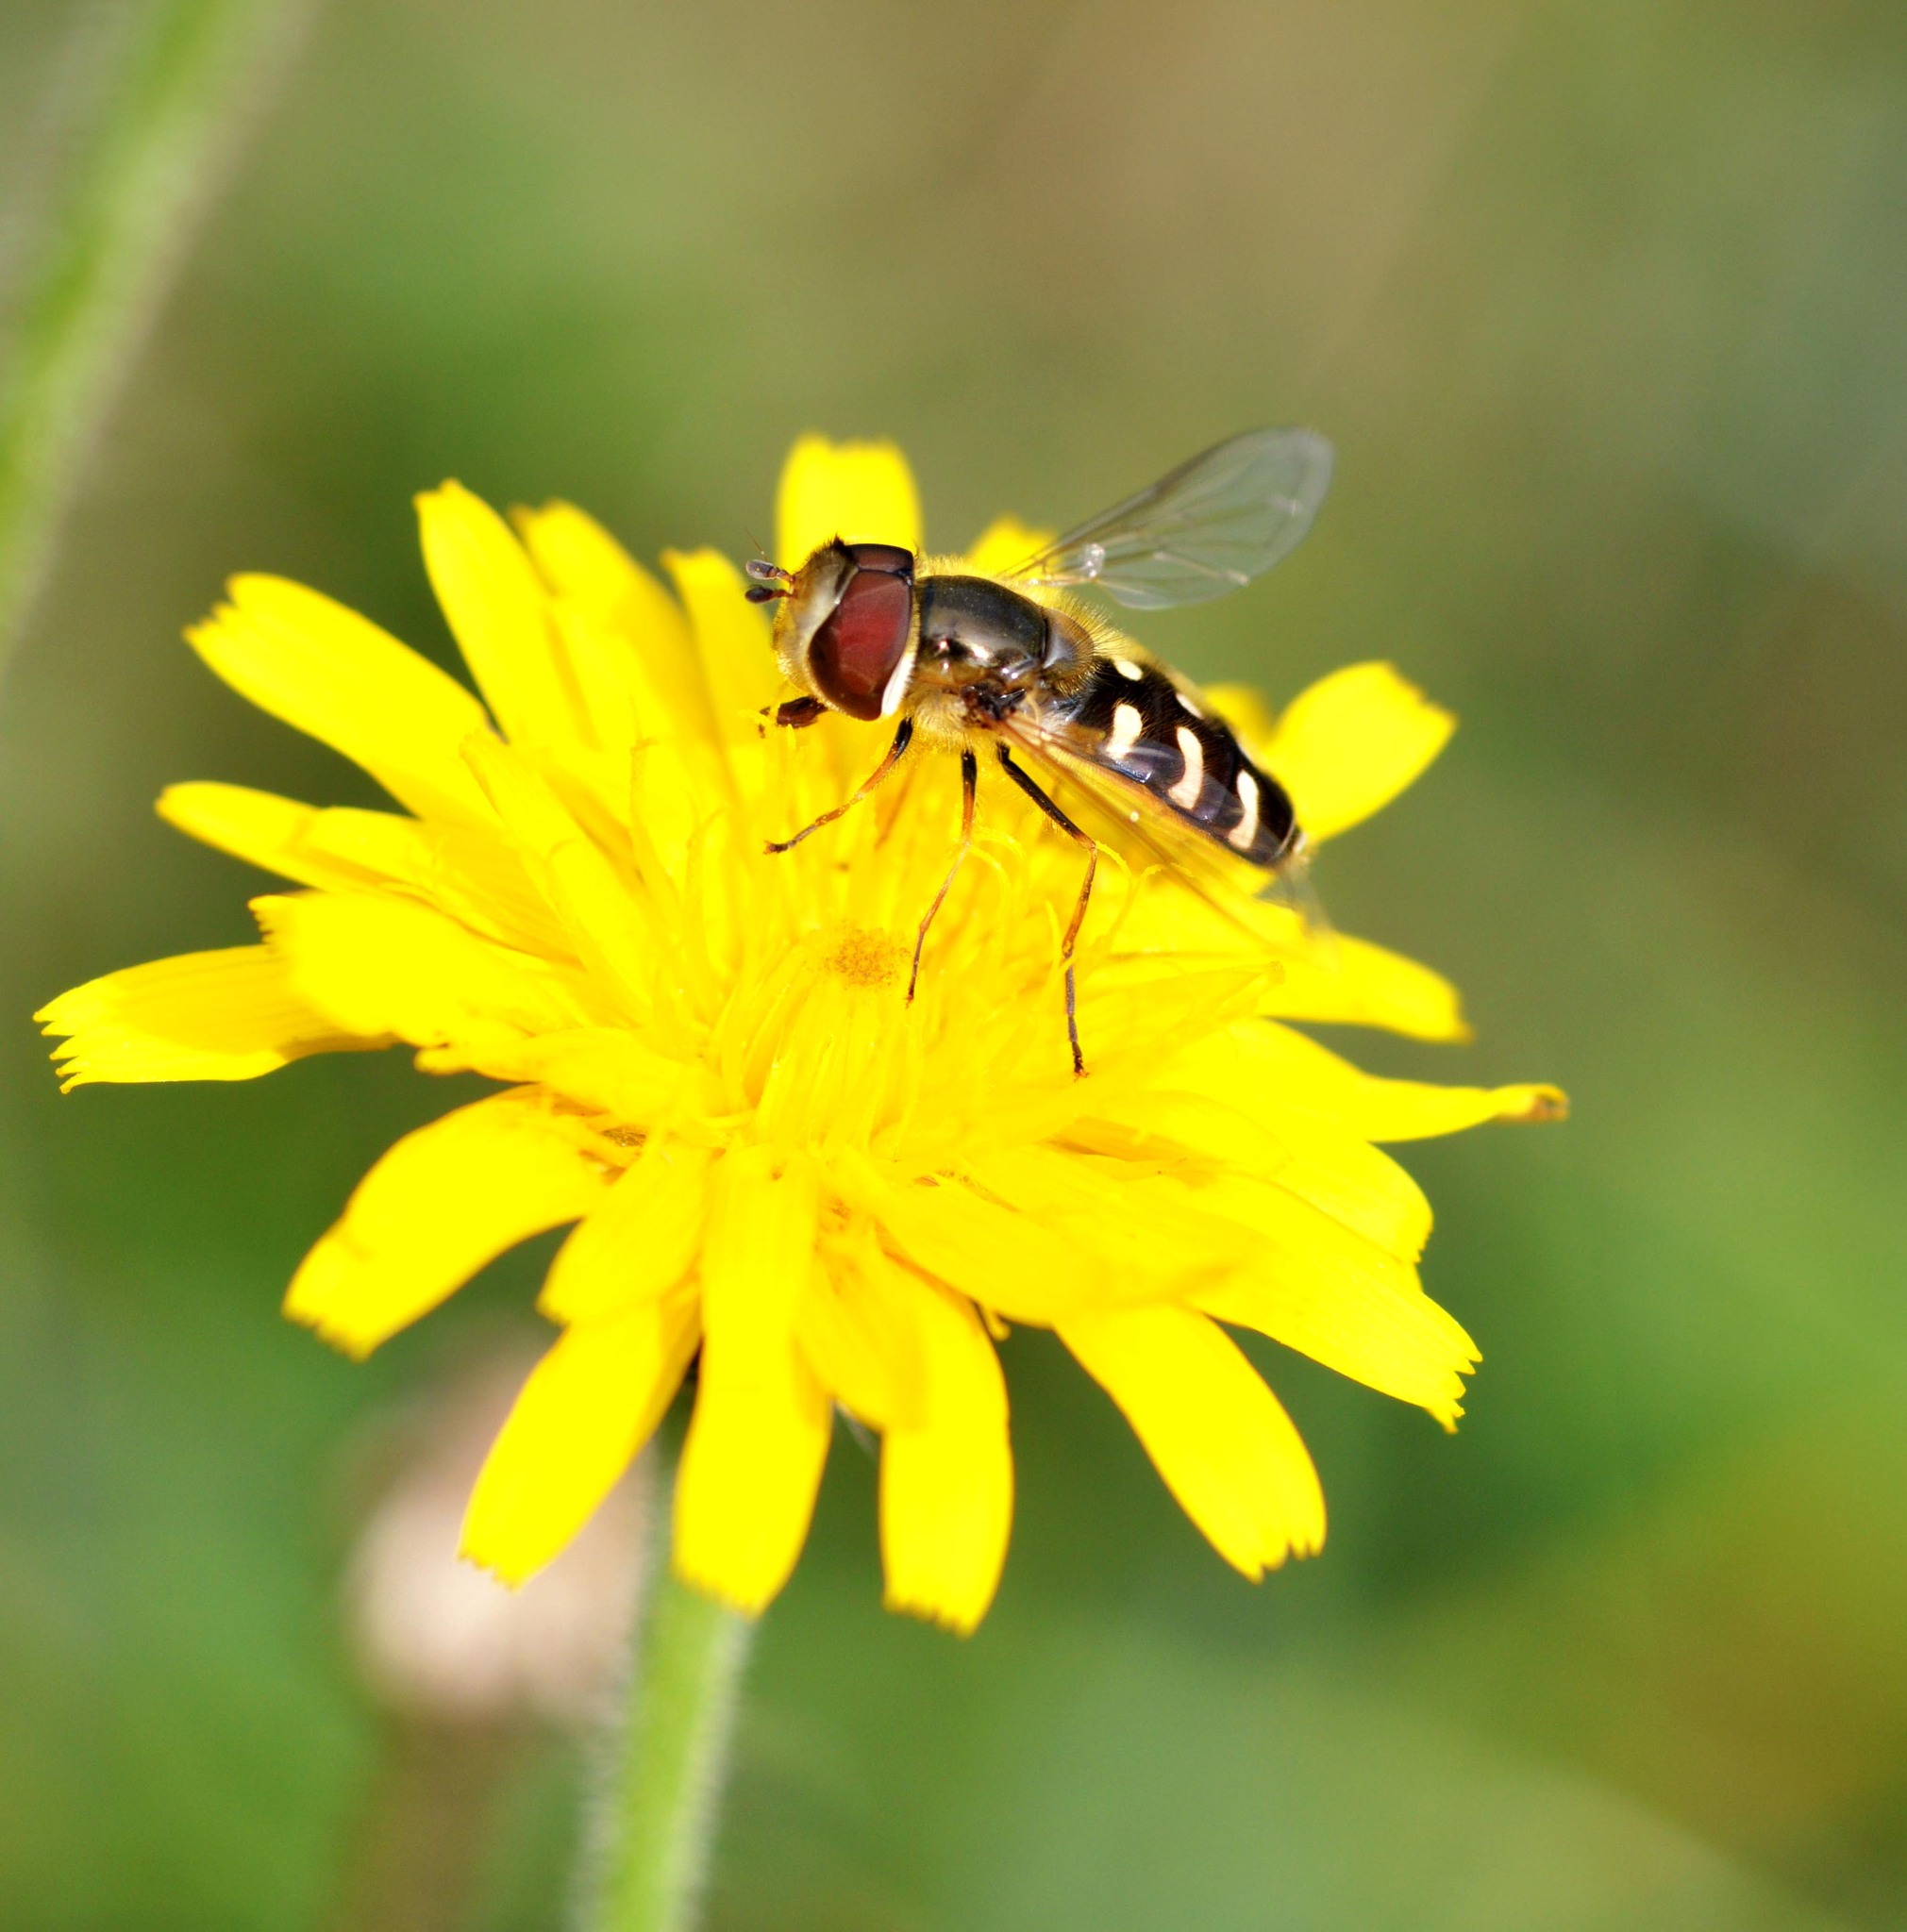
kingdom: Animalia
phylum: Arthropoda
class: Insecta
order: Diptera
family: Syrphidae
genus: Scaeva
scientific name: Scaeva pyrastri
